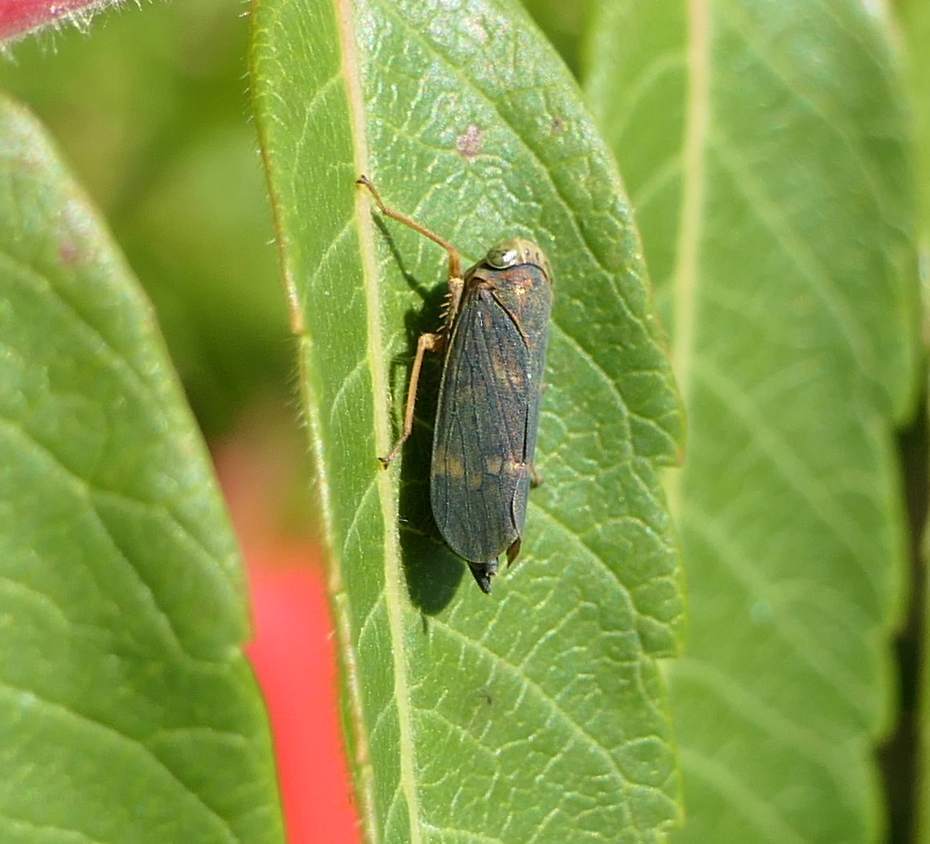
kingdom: Animalia
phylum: Arthropoda
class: Insecta
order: Hemiptera
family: Cicadellidae
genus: Jikradia
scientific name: Jikradia olitoria
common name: Coppery leafhopper
